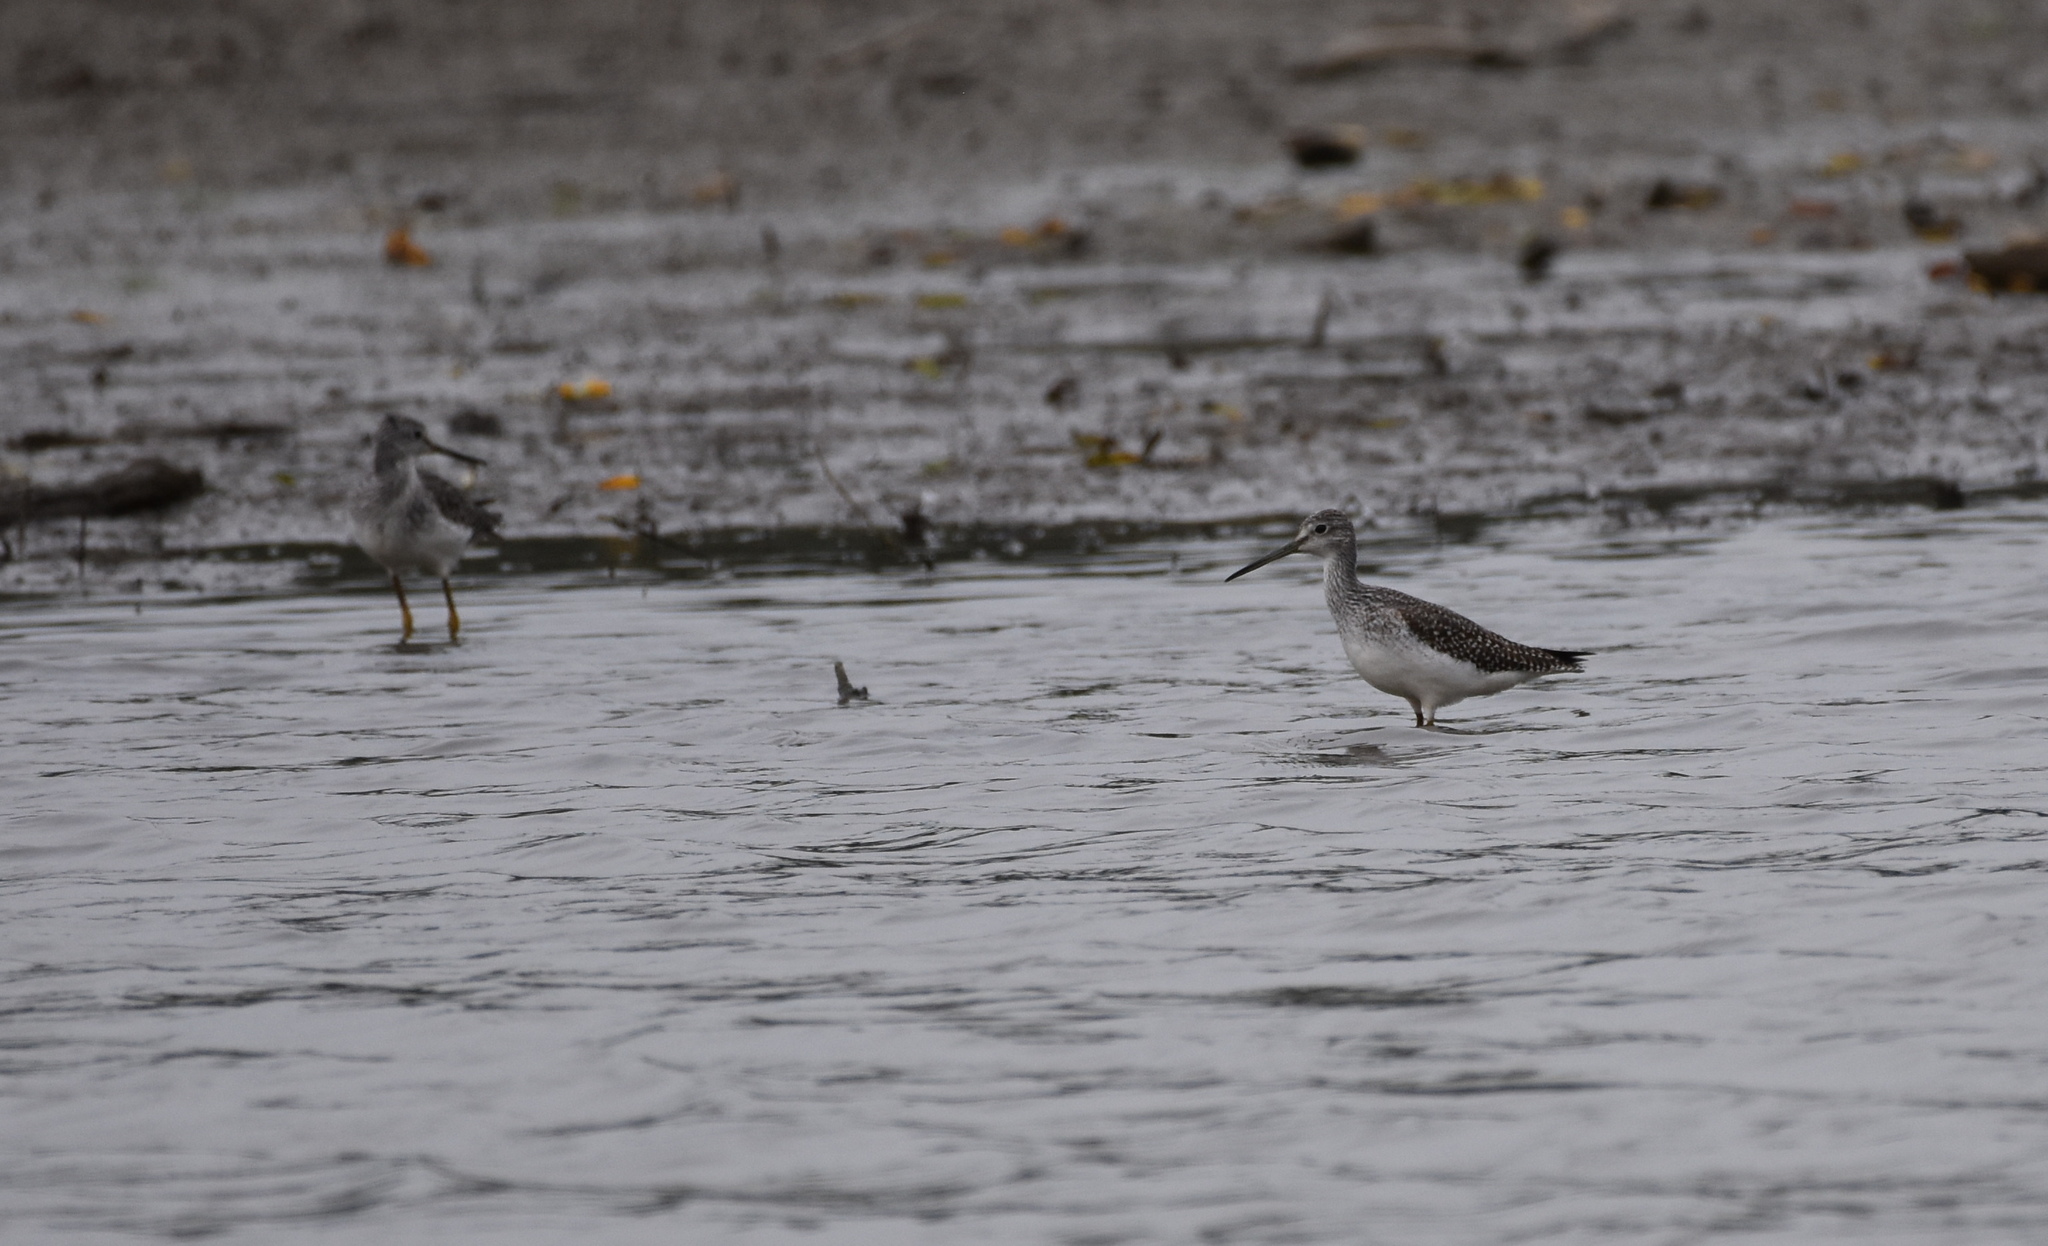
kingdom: Animalia
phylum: Chordata
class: Aves
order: Charadriiformes
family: Scolopacidae
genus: Tringa
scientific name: Tringa melanoleuca
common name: Greater yellowlegs
